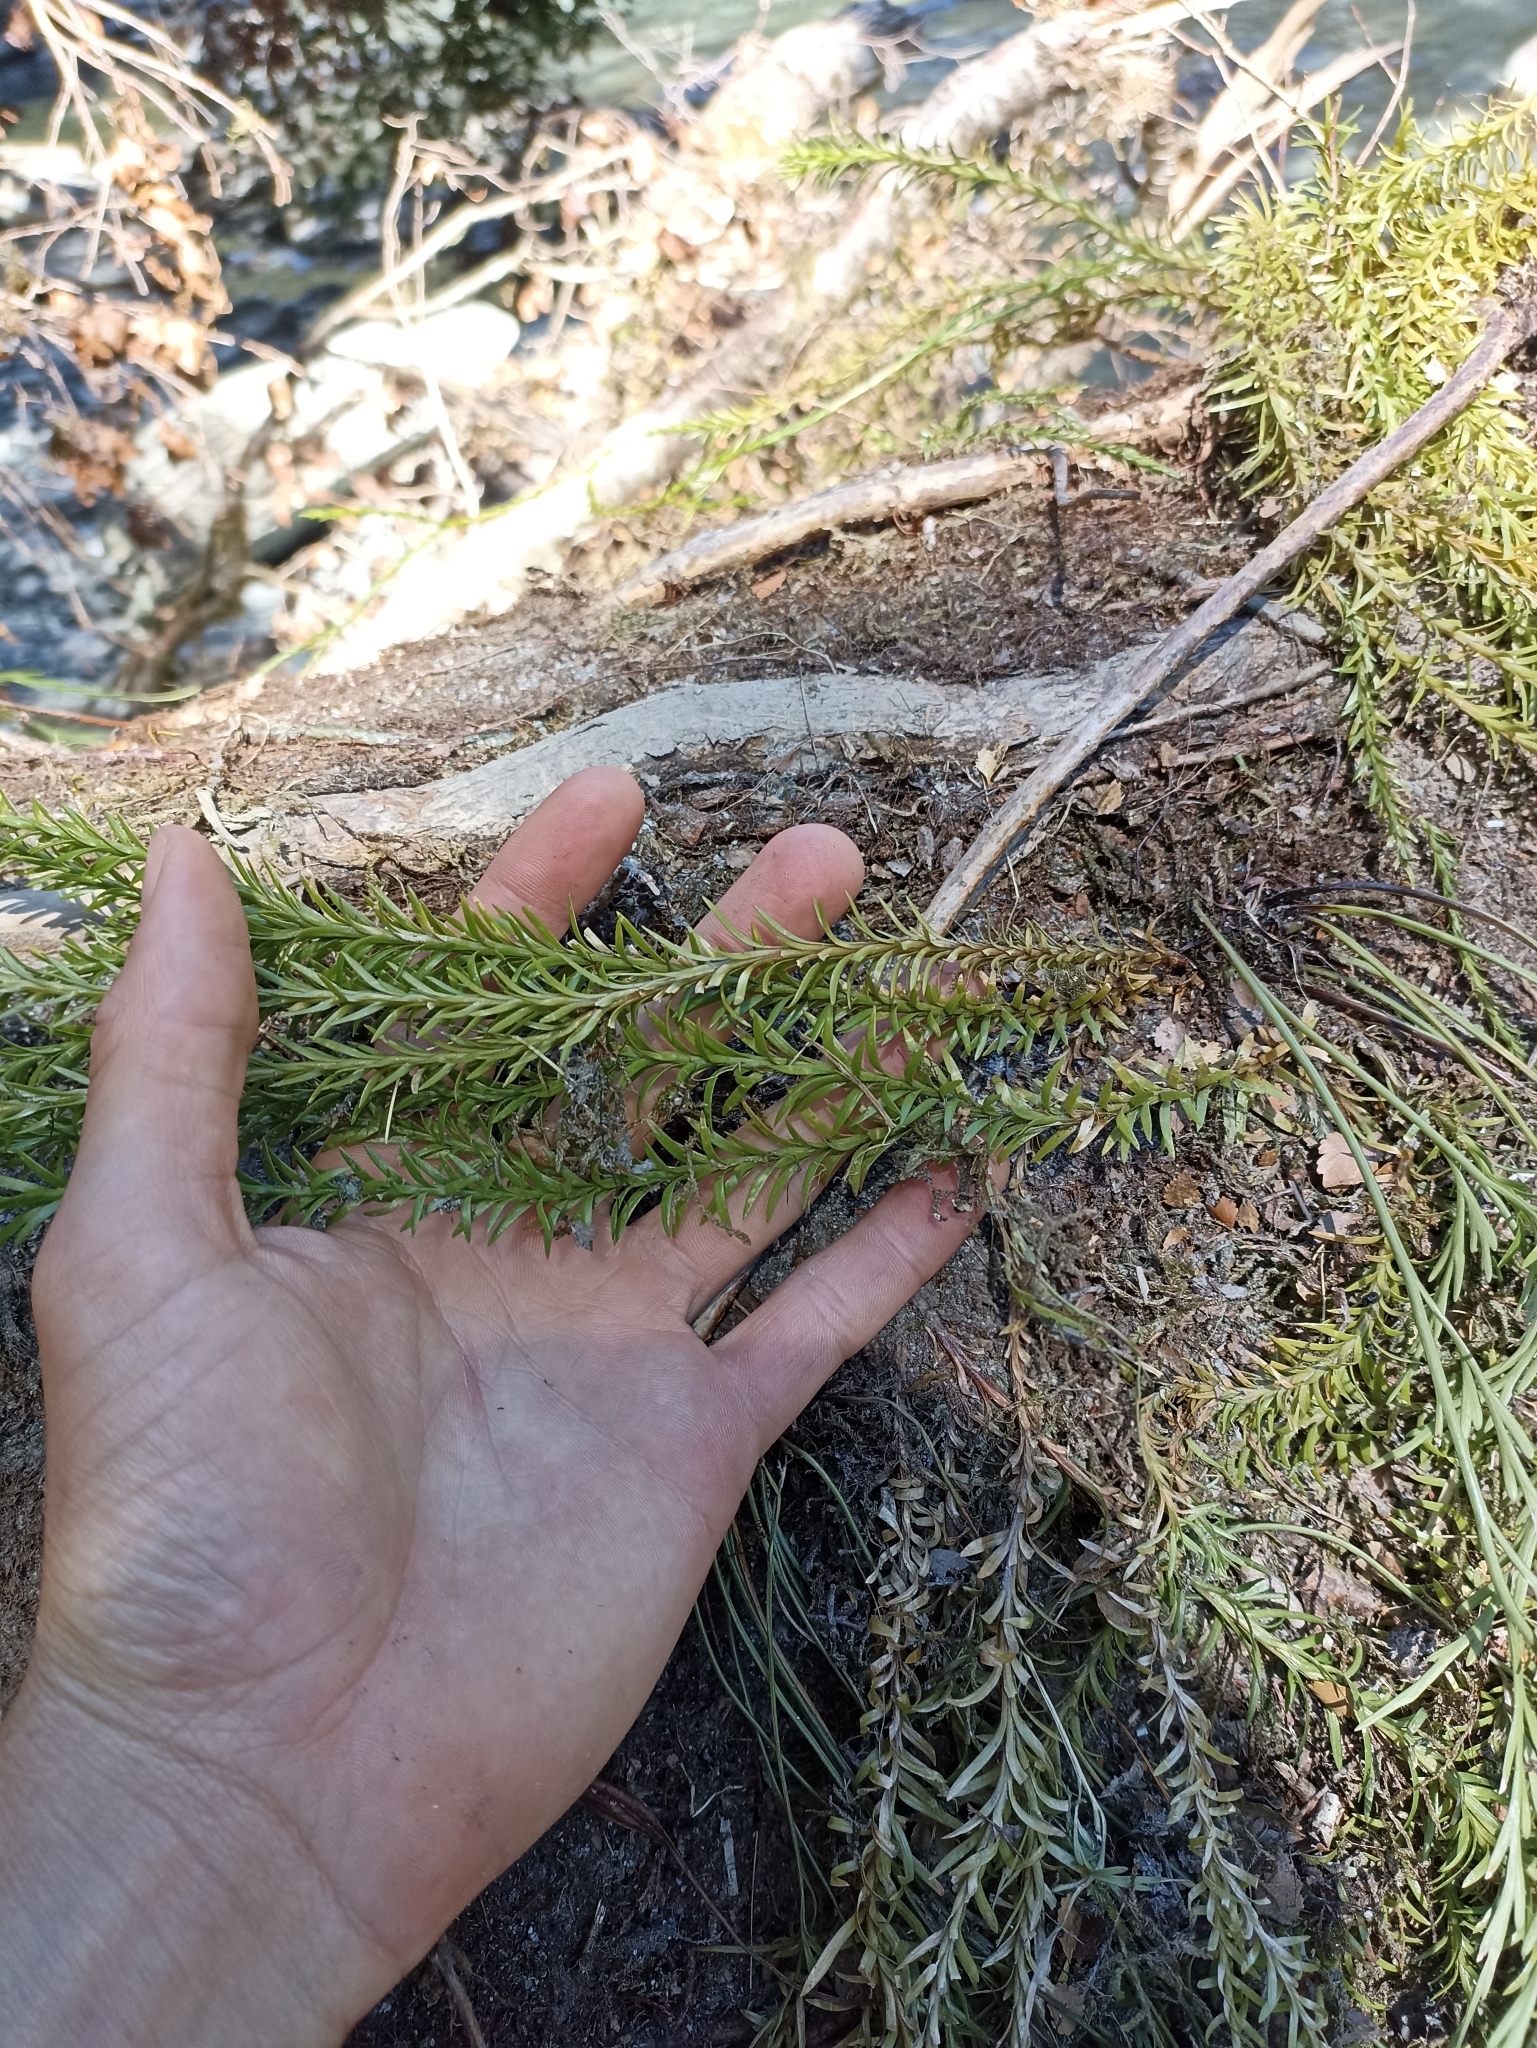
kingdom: Plantae
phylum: Tracheophyta
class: Lycopodiopsida
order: Lycopodiales
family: Lycopodiaceae
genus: Phlegmariurus
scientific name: Phlegmariurus varius
